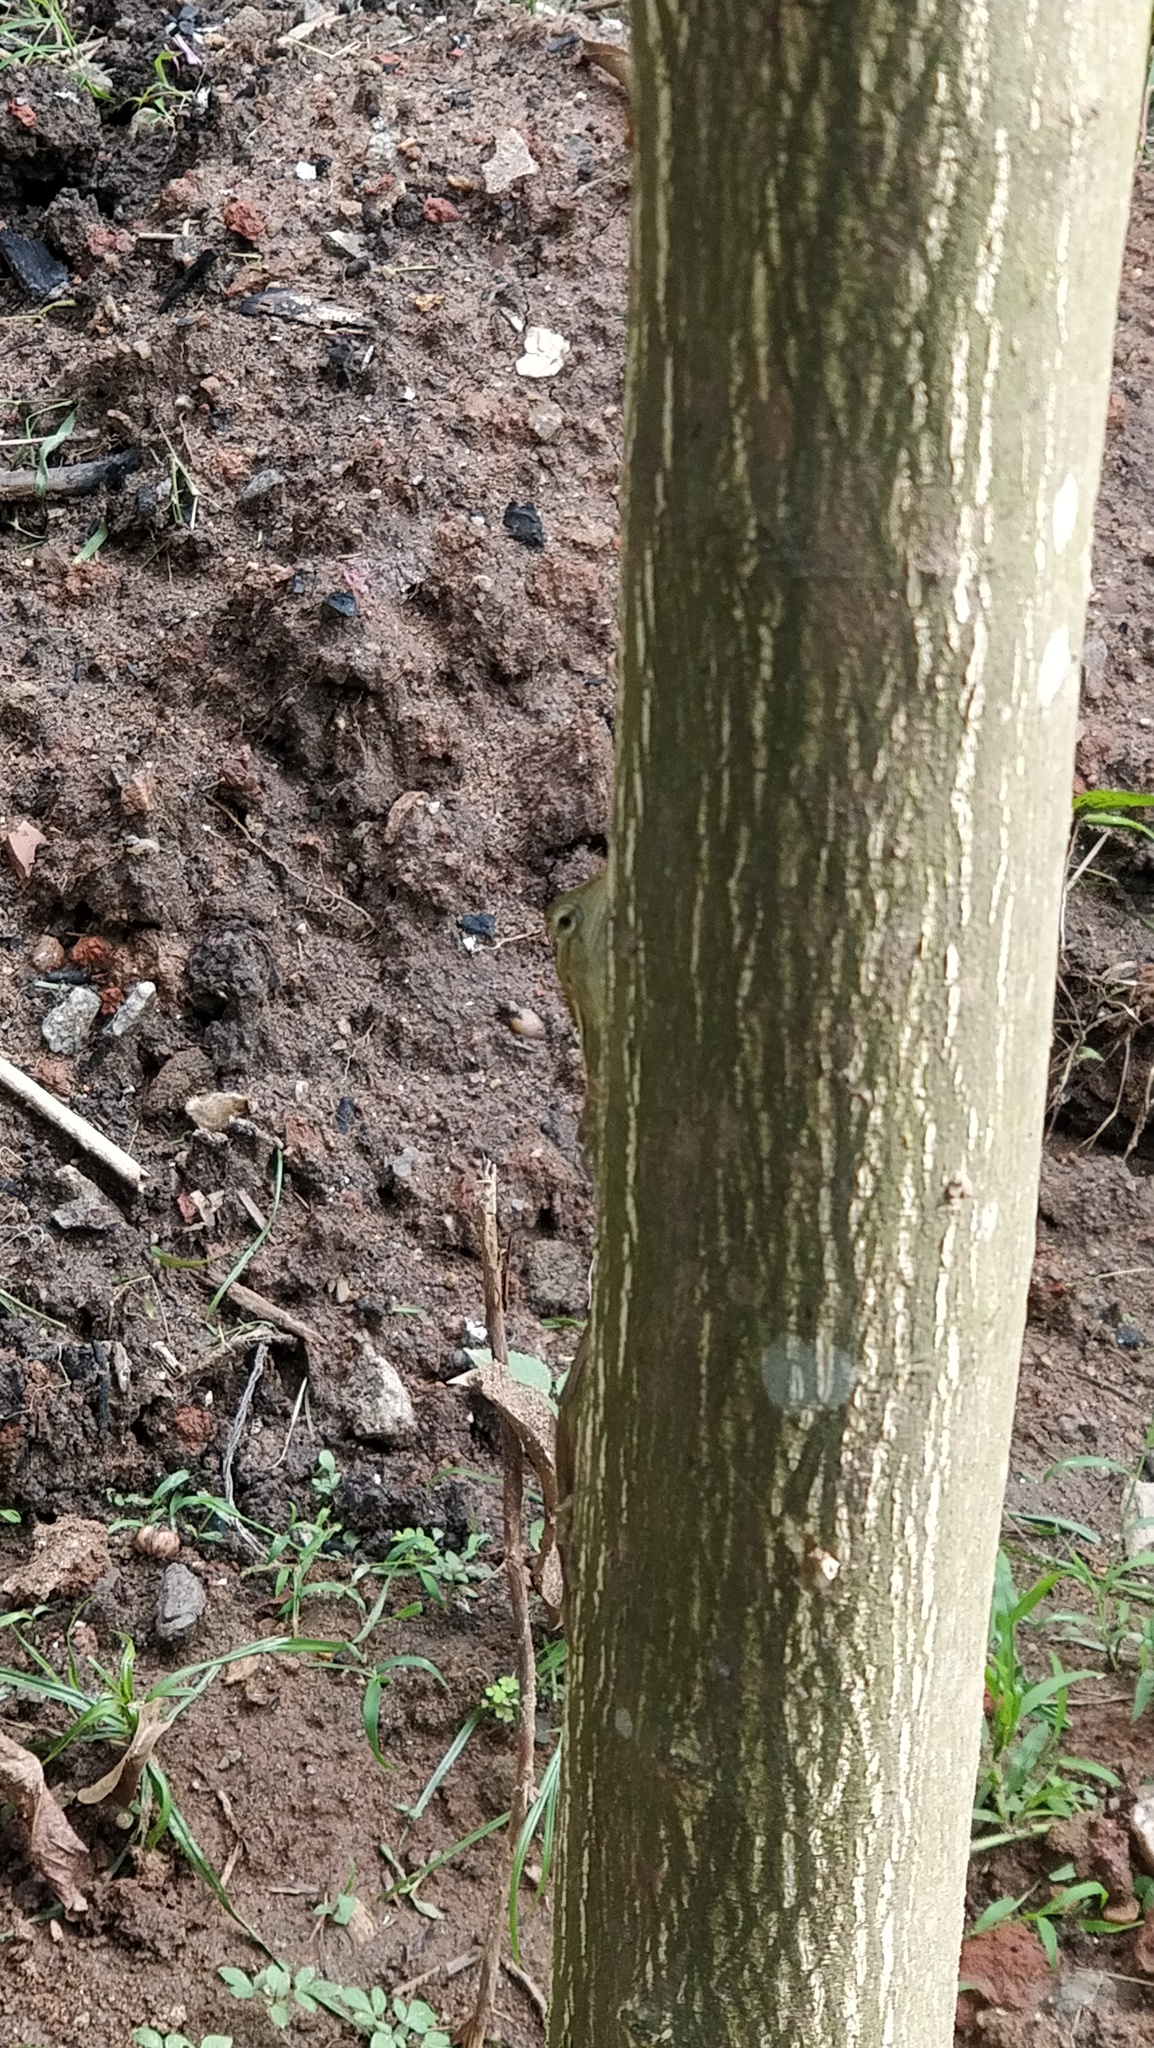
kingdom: Animalia
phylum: Chordata
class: Squamata
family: Agamidae
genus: Calotes
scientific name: Calotes versicolor
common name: Oriental garden lizard
